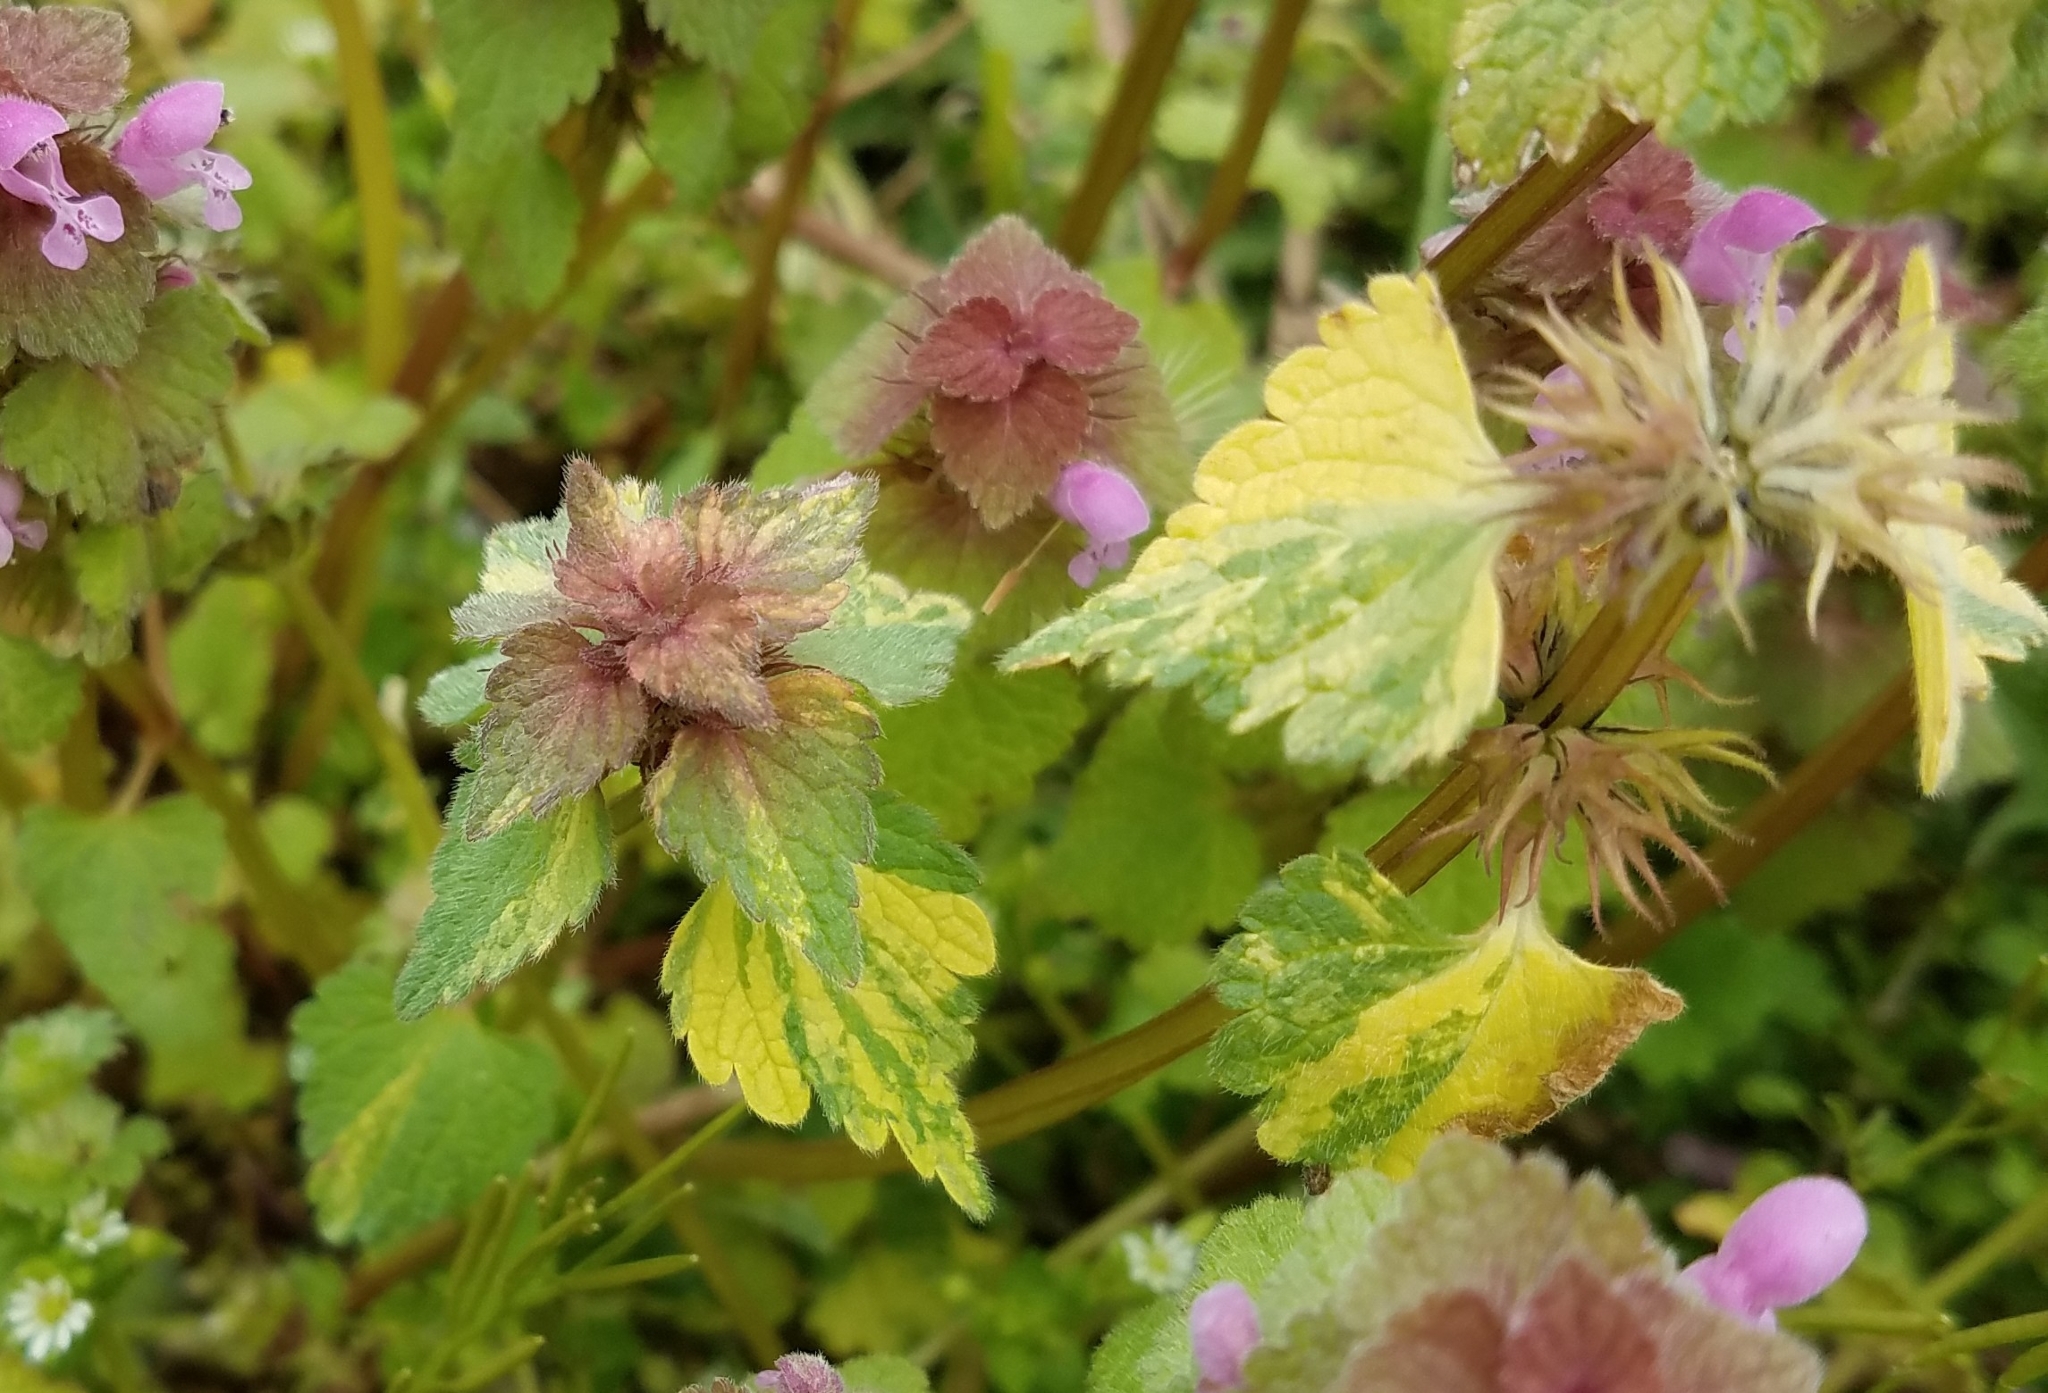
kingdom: Plantae
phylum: Tracheophyta
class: Magnoliopsida
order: Lamiales
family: Lamiaceae
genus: Lamium
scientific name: Lamium purpureum
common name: Red dead-nettle
